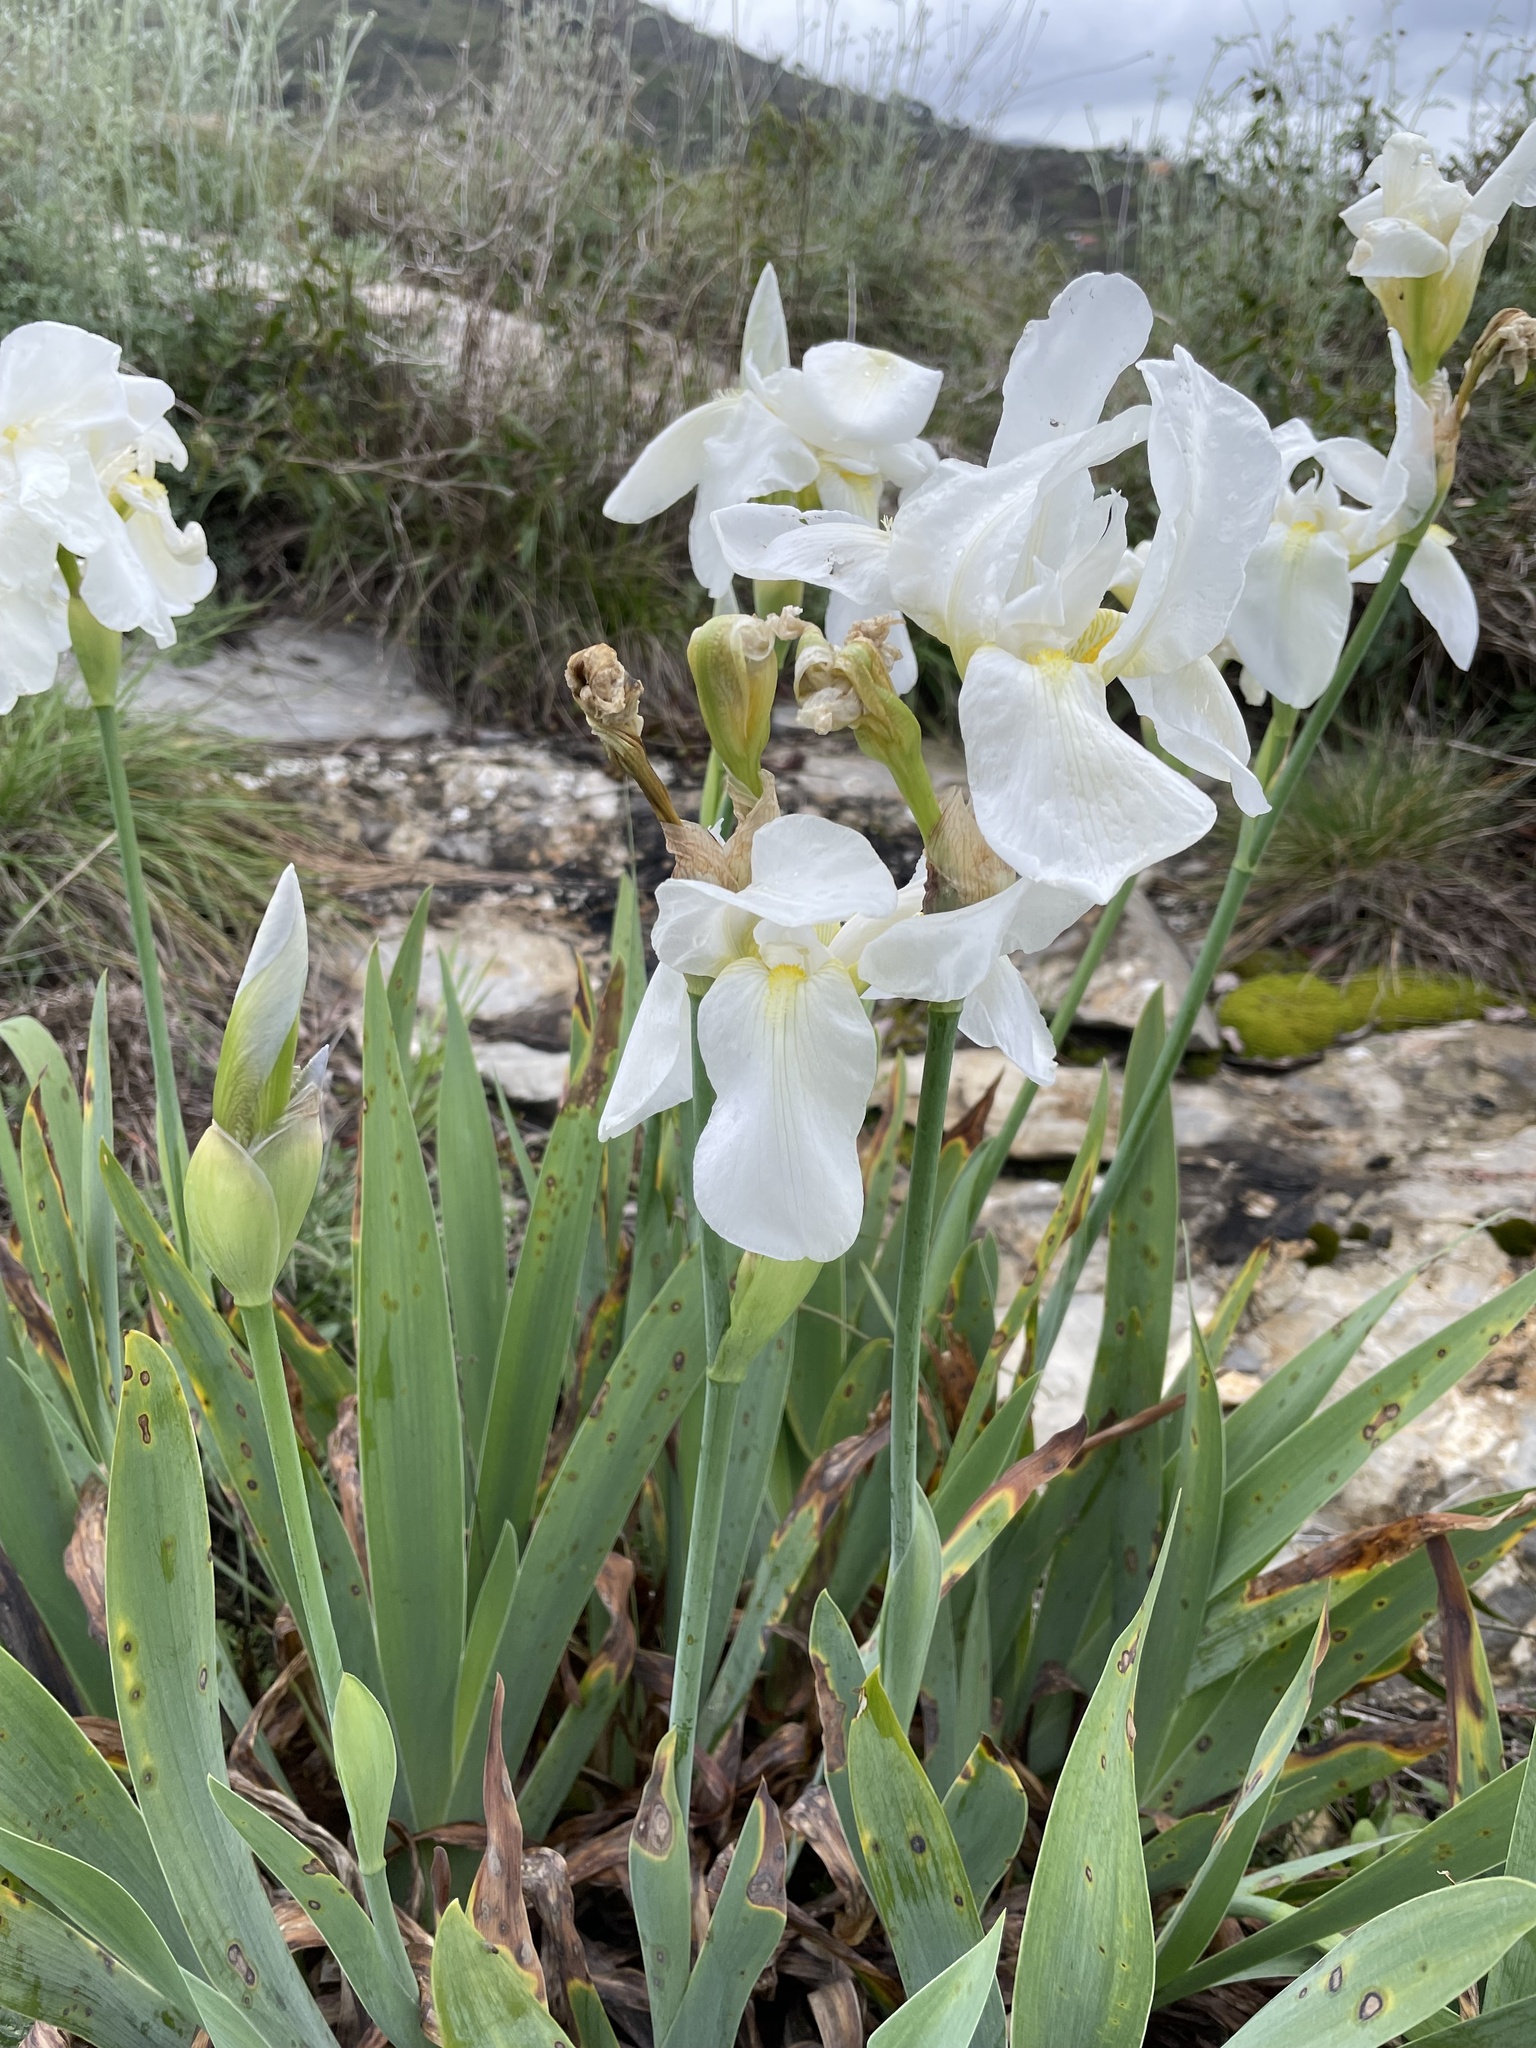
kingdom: Plantae
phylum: Tracheophyta
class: Liliopsida
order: Asparagales
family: Iridaceae
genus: Iris
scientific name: Iris florentina
